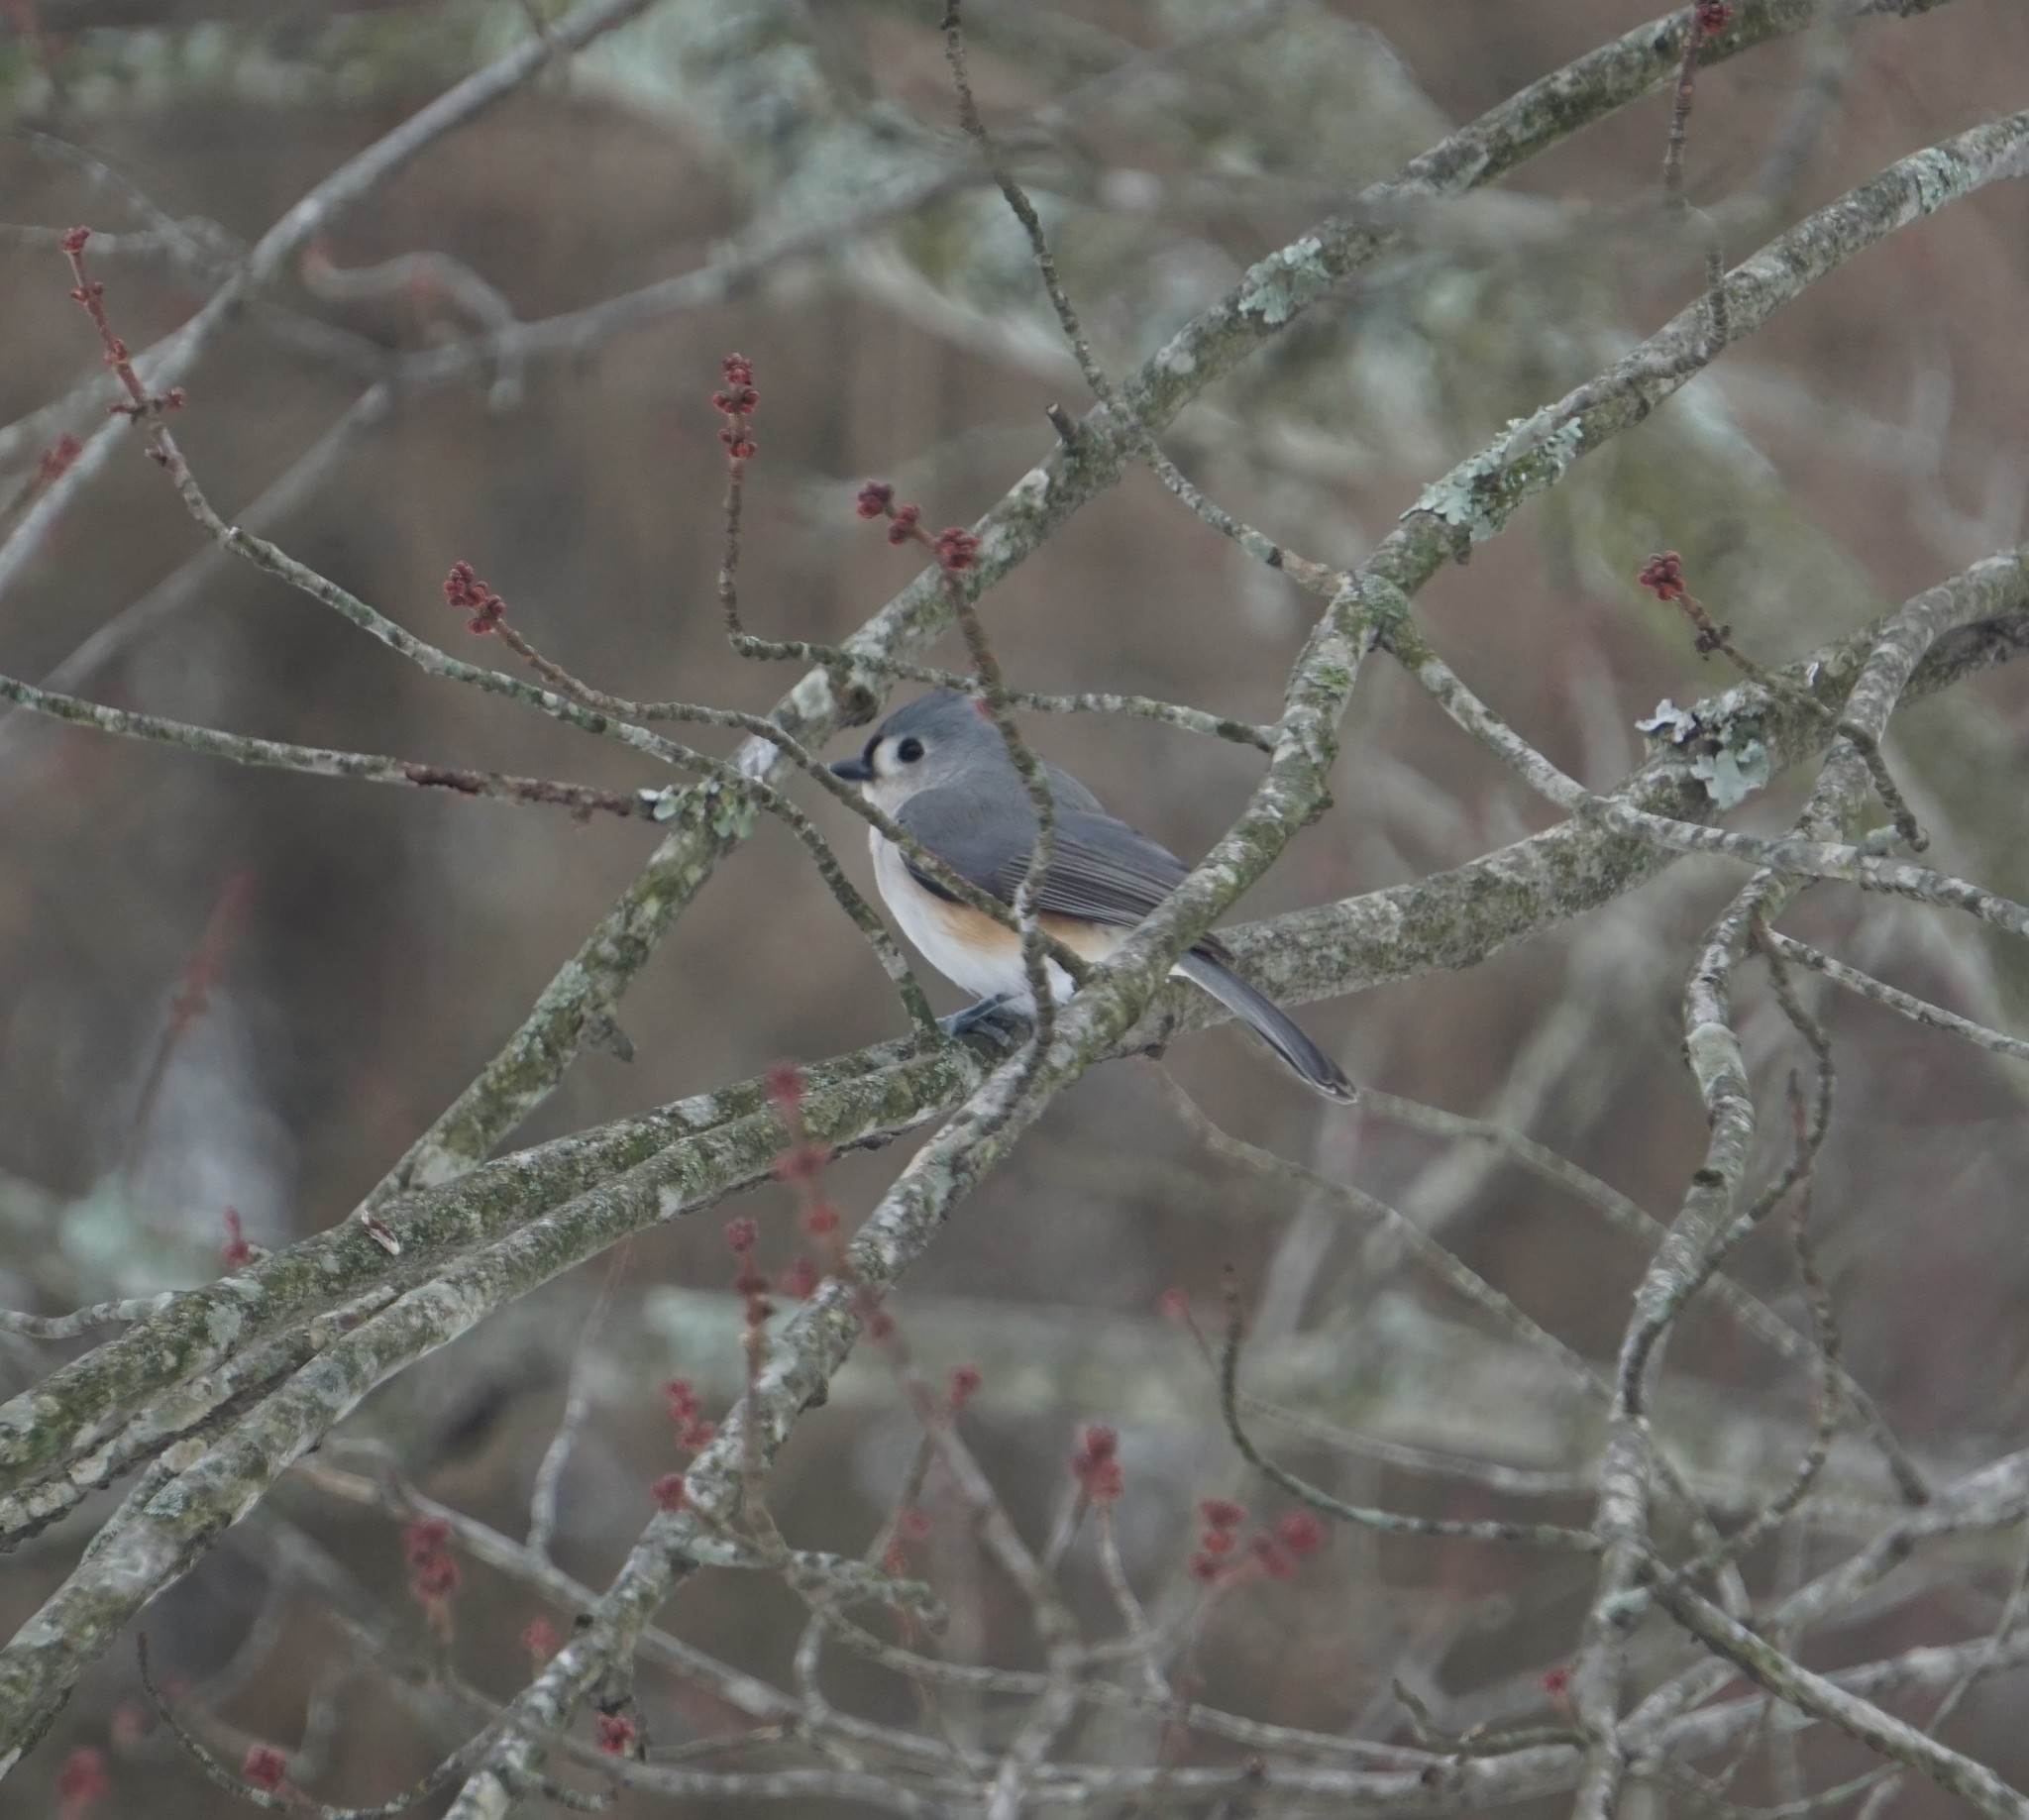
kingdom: Animalia
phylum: Chordata
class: Aves
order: Passeriformes
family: Paridae
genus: Baeolophus
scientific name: Baeolophus bicolor
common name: Tufted titmouse
